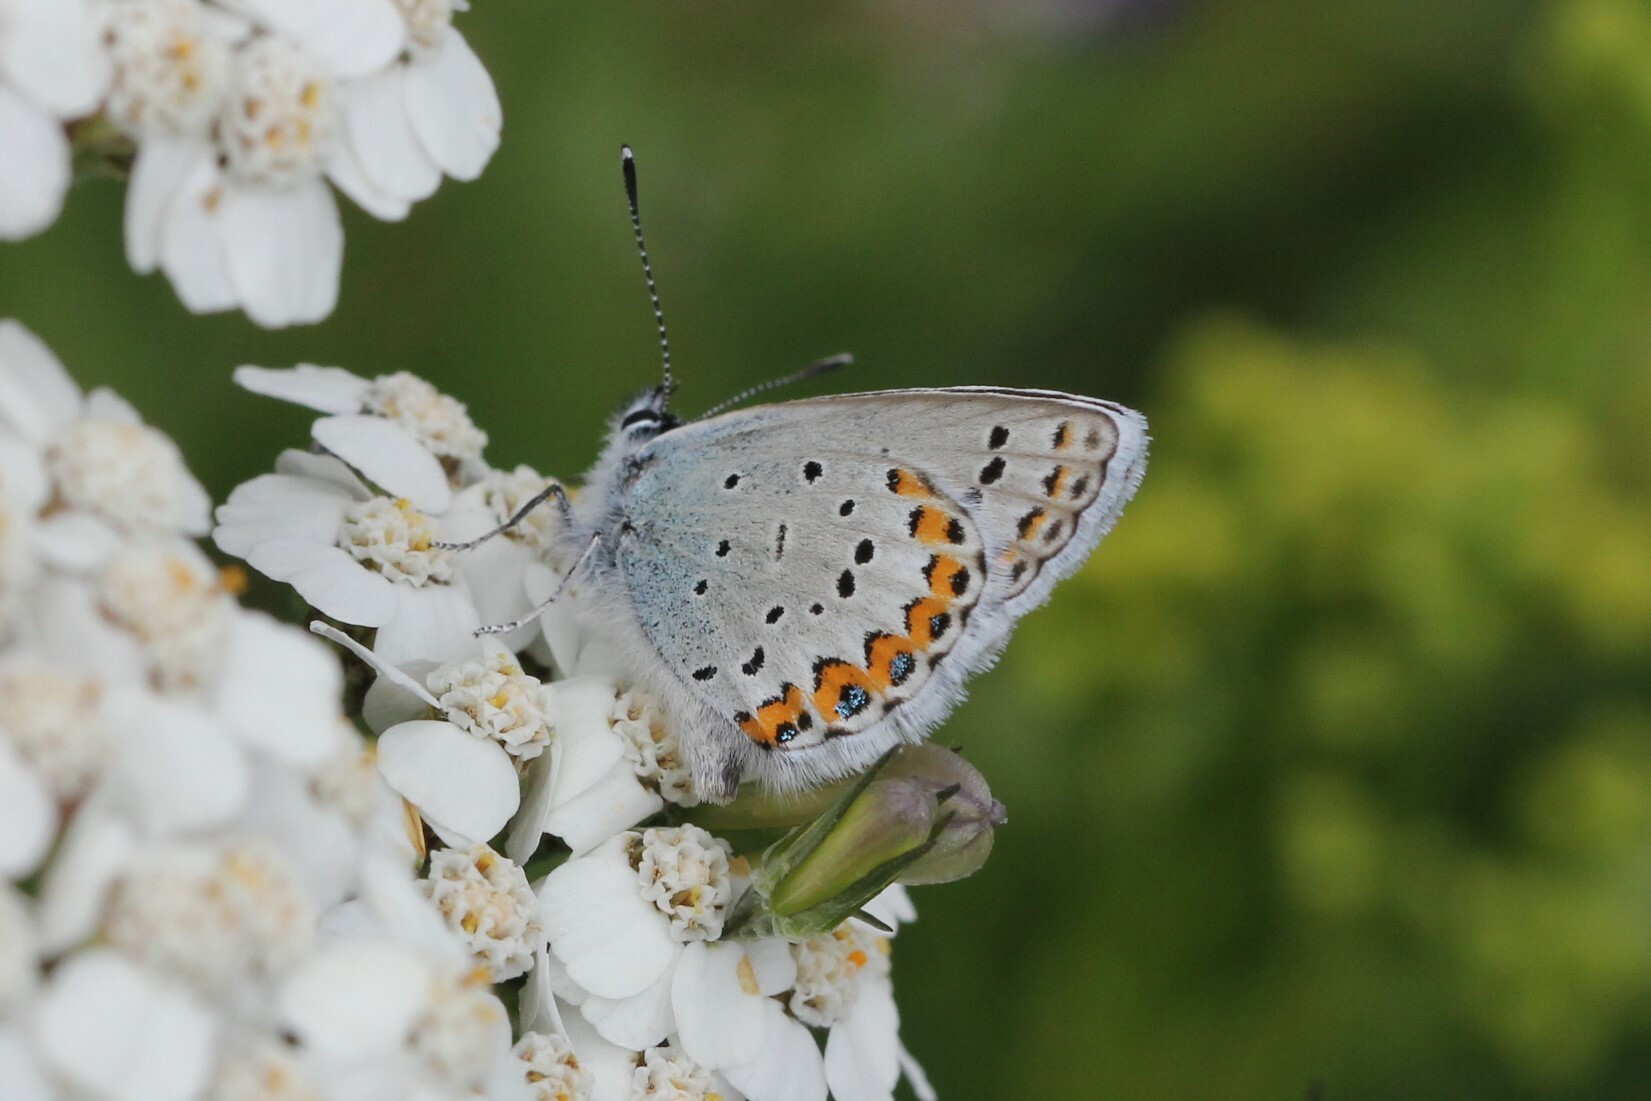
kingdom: Animalia
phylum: Arthropoda
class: Insecta
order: Lepidoptera
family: Lycaenidae
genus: Lycaeides
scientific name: Lycaeides idas
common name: Northern blue
